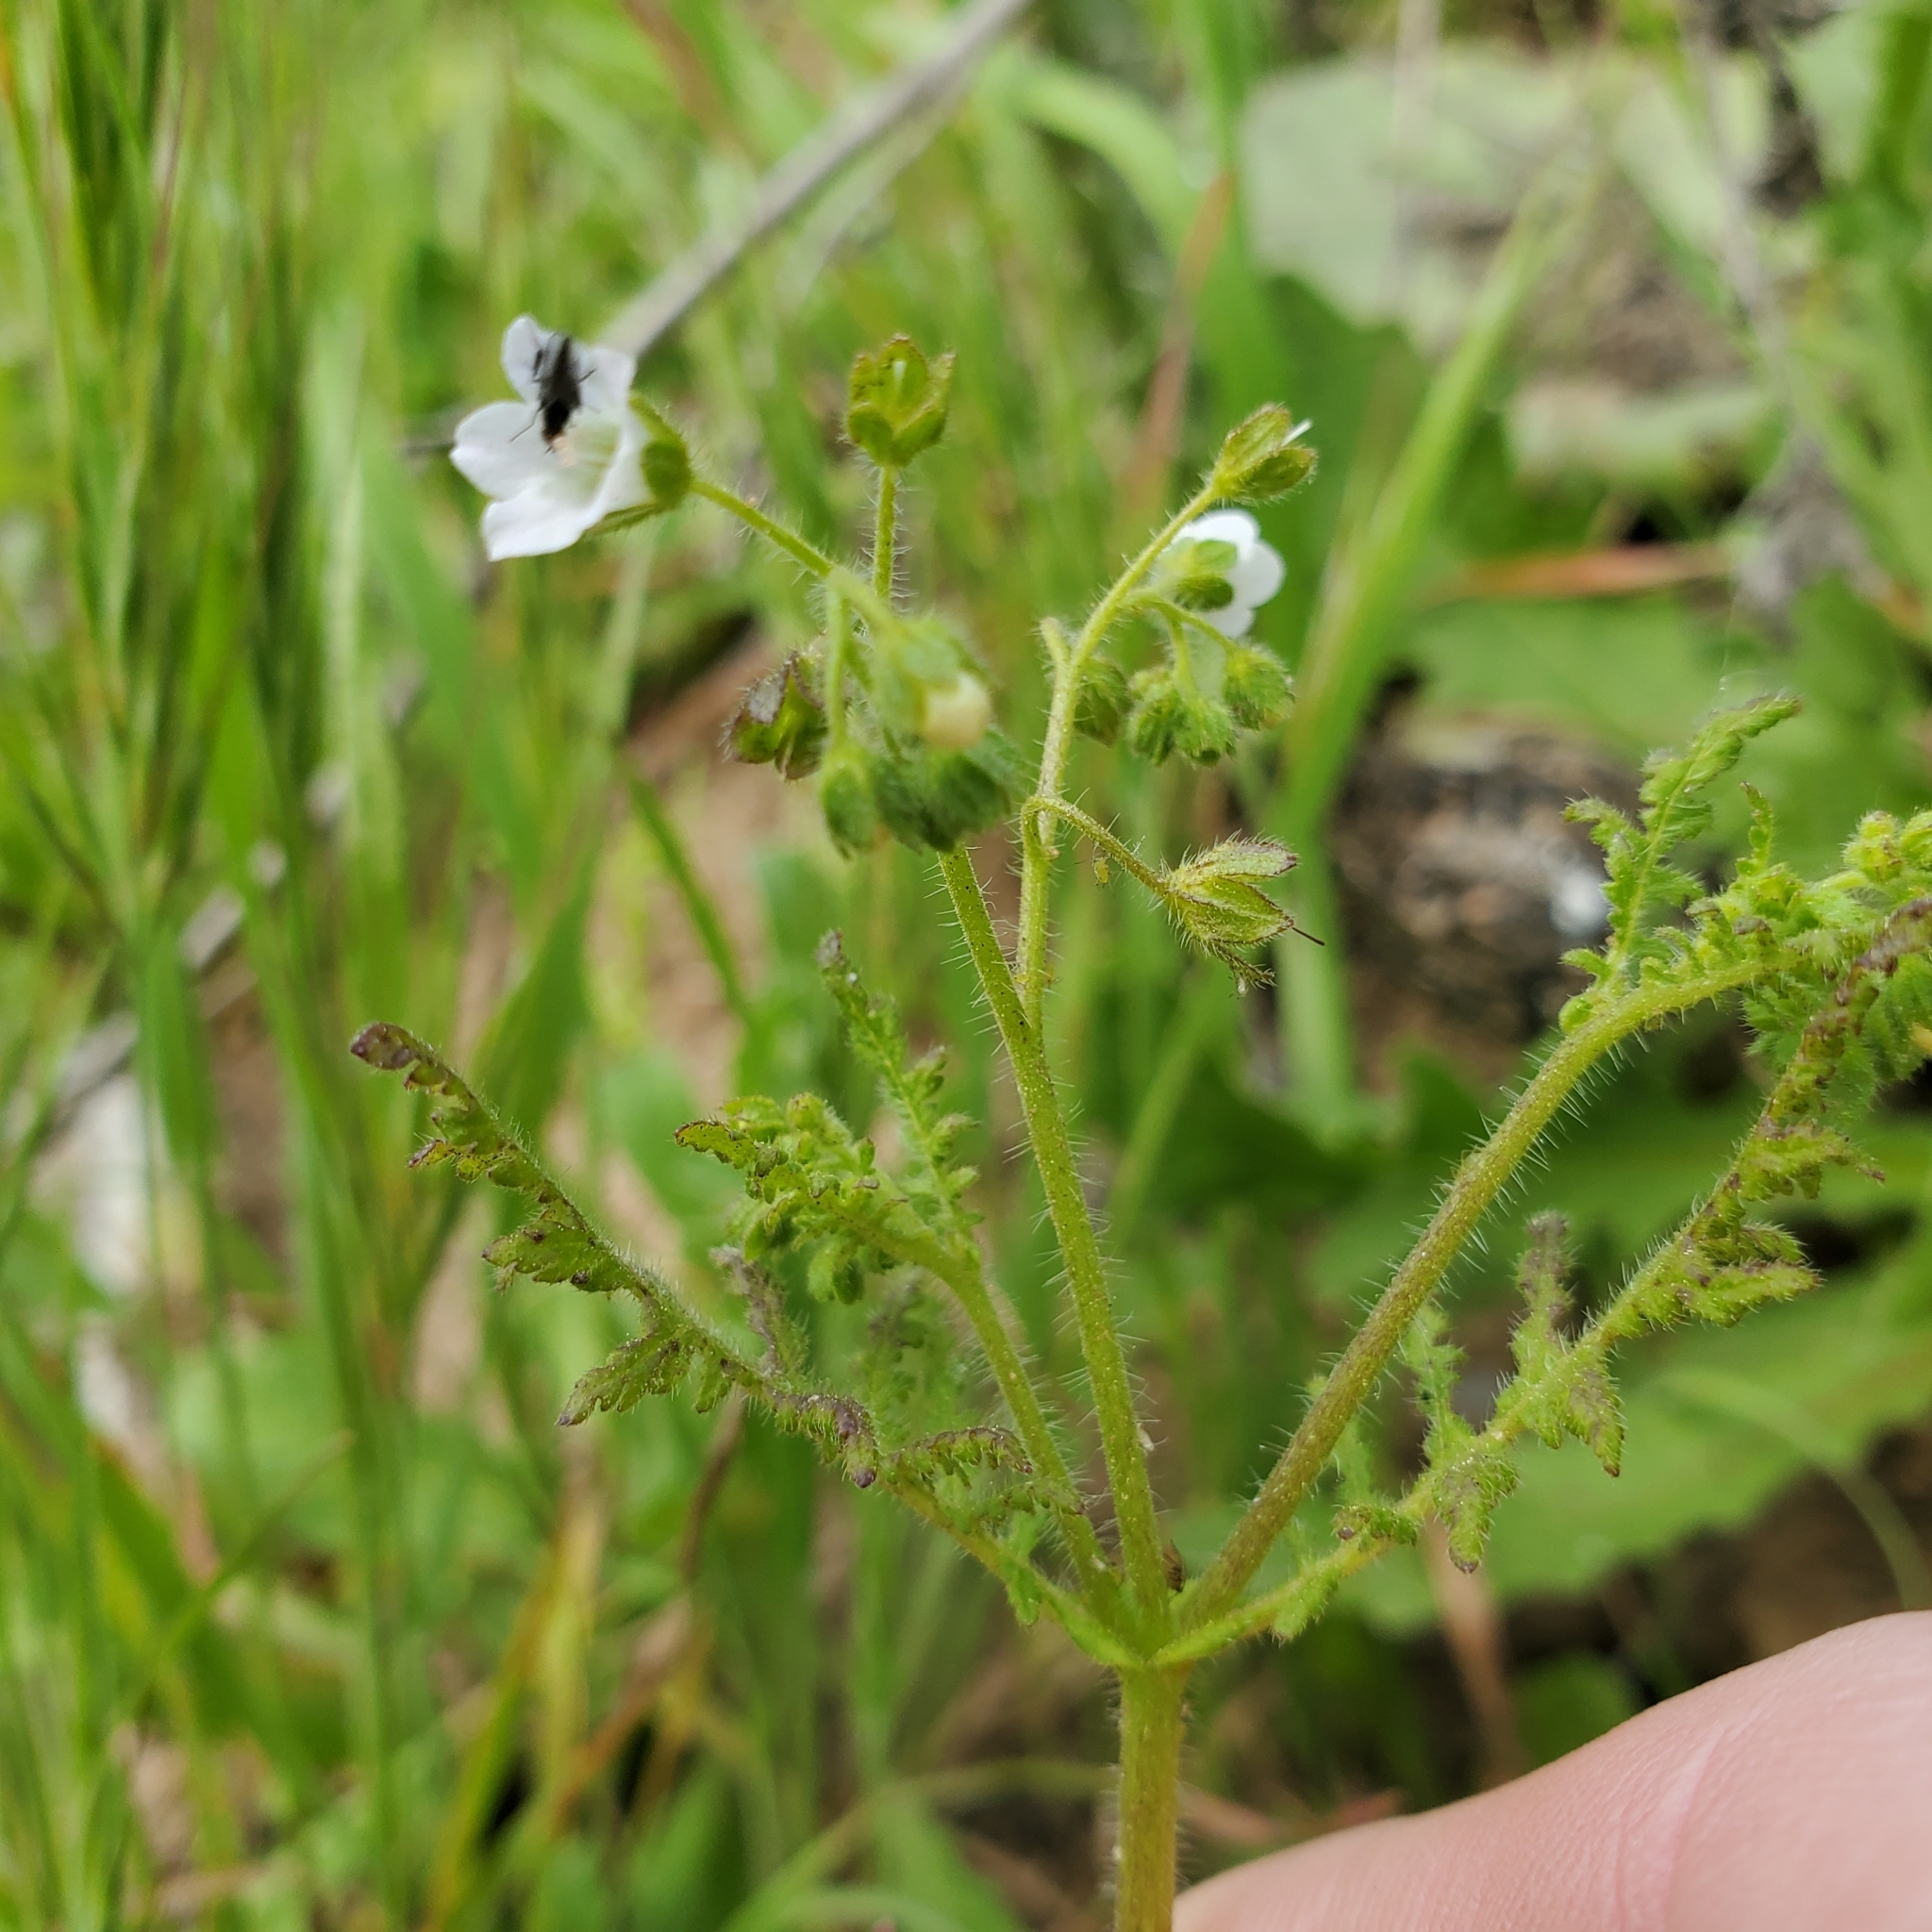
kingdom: Plantae
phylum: Tracheophyta
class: Magnoliopsida
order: Boraginales
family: Hydrophyllaceae
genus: Eucrypta
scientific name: Eucrypta chrysanthemifolia
